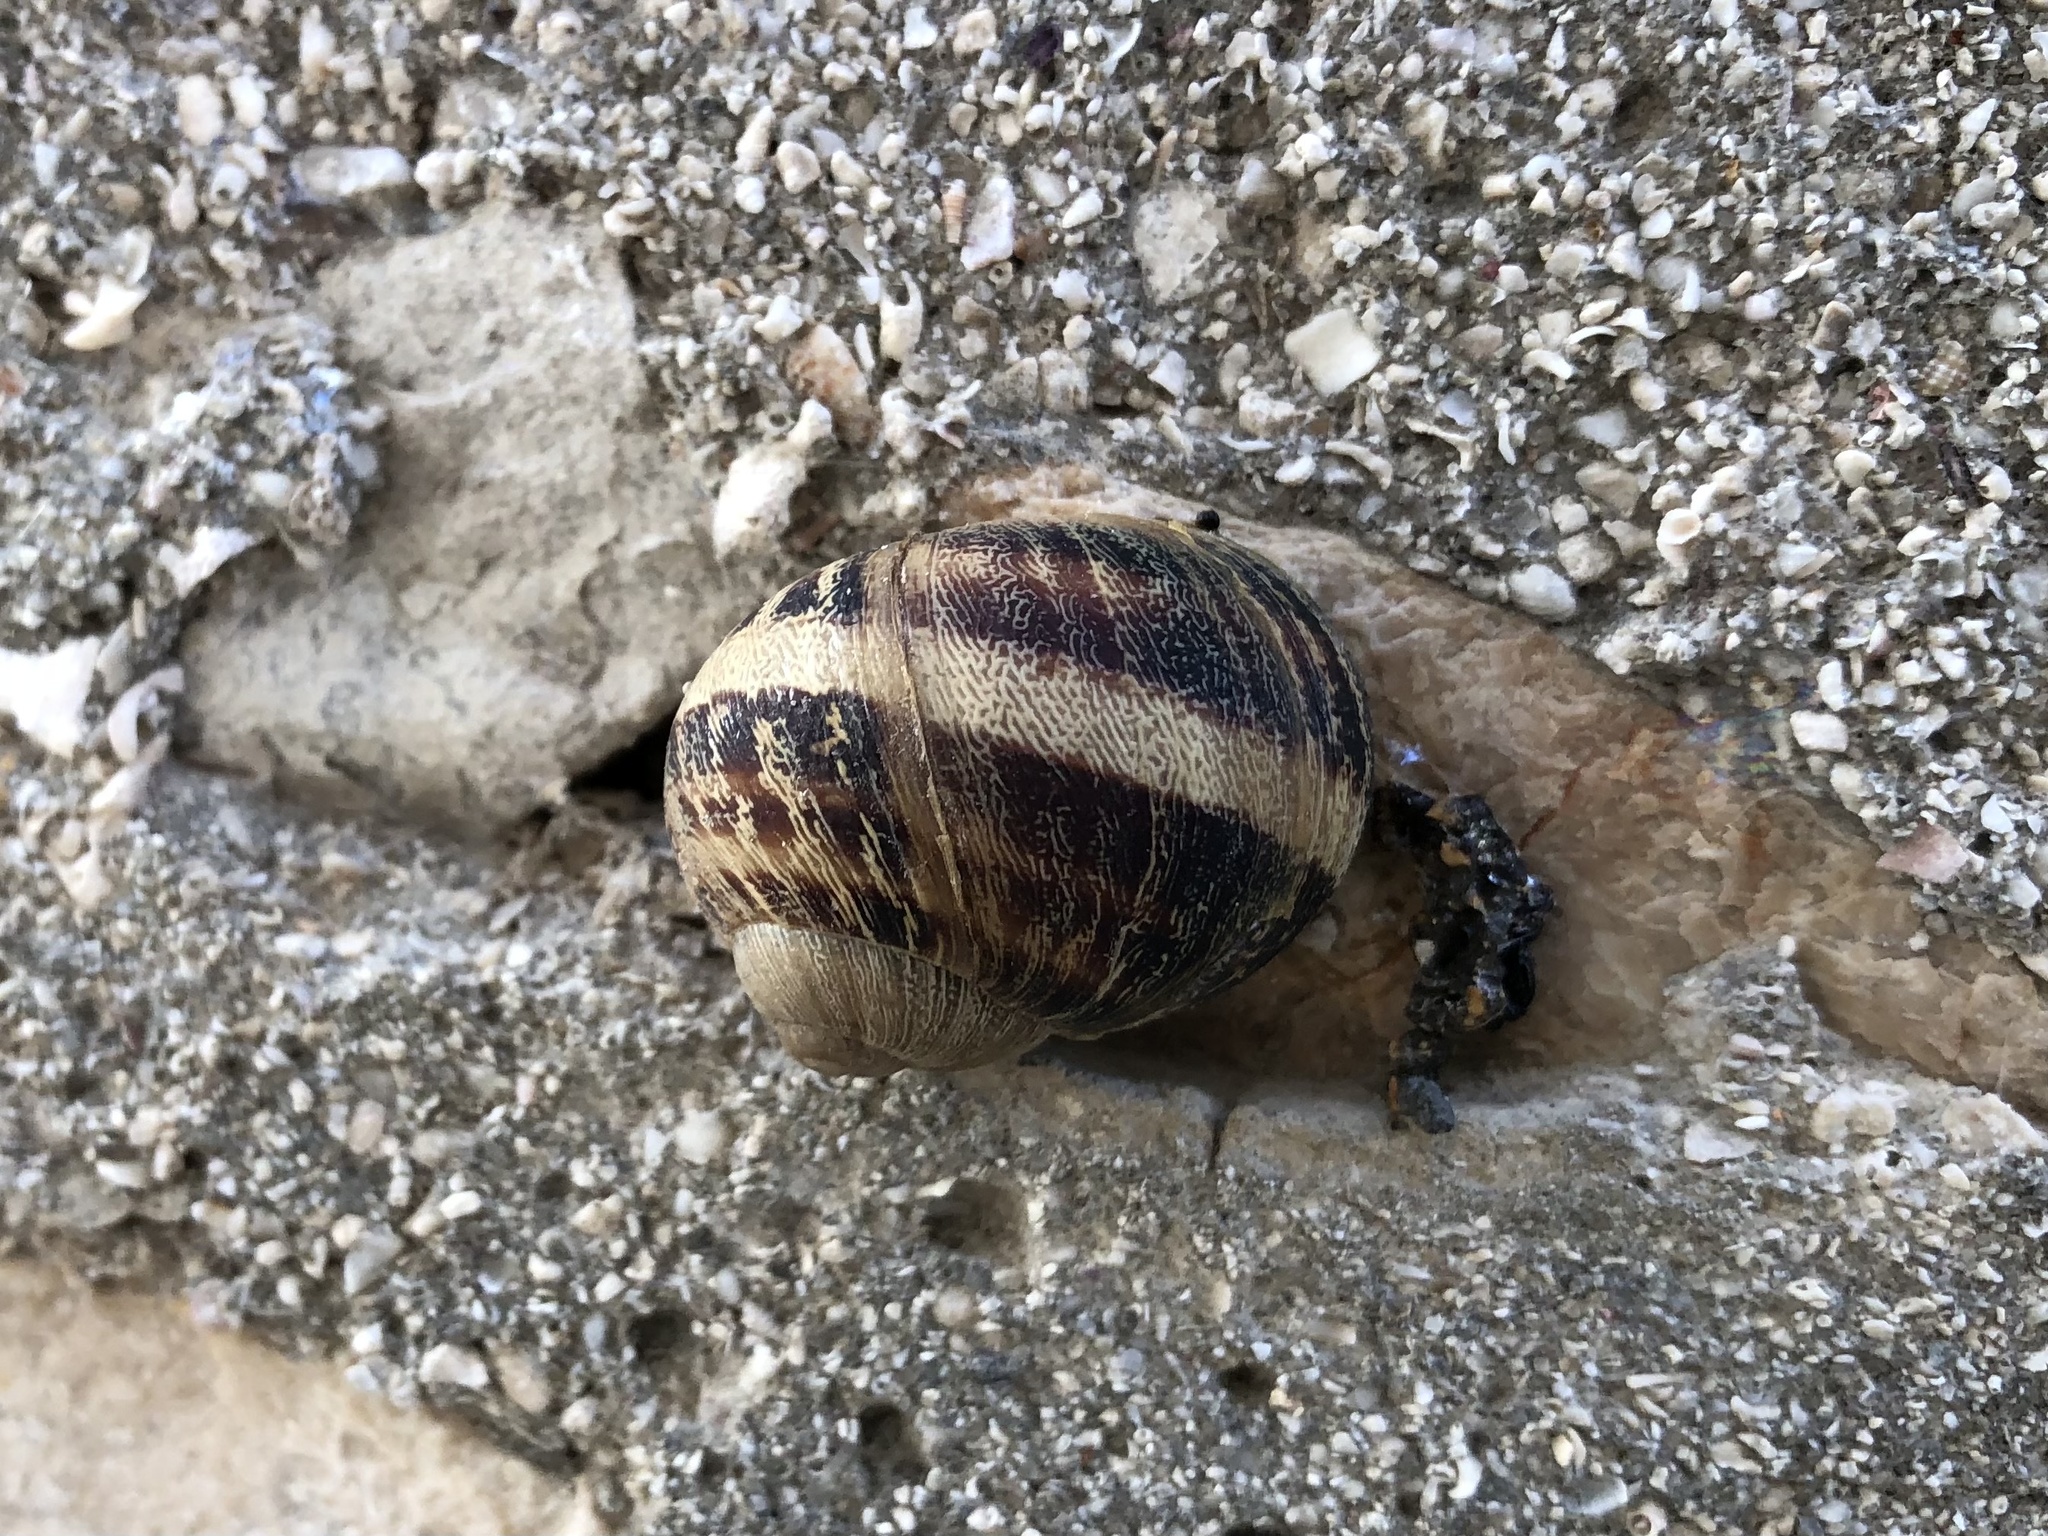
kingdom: Animalia
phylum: Mollusca
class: Gastropoda
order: Stylommatophora
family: Helicidae
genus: Cornu
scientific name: Cornu aspersum
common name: Brown garden snail
